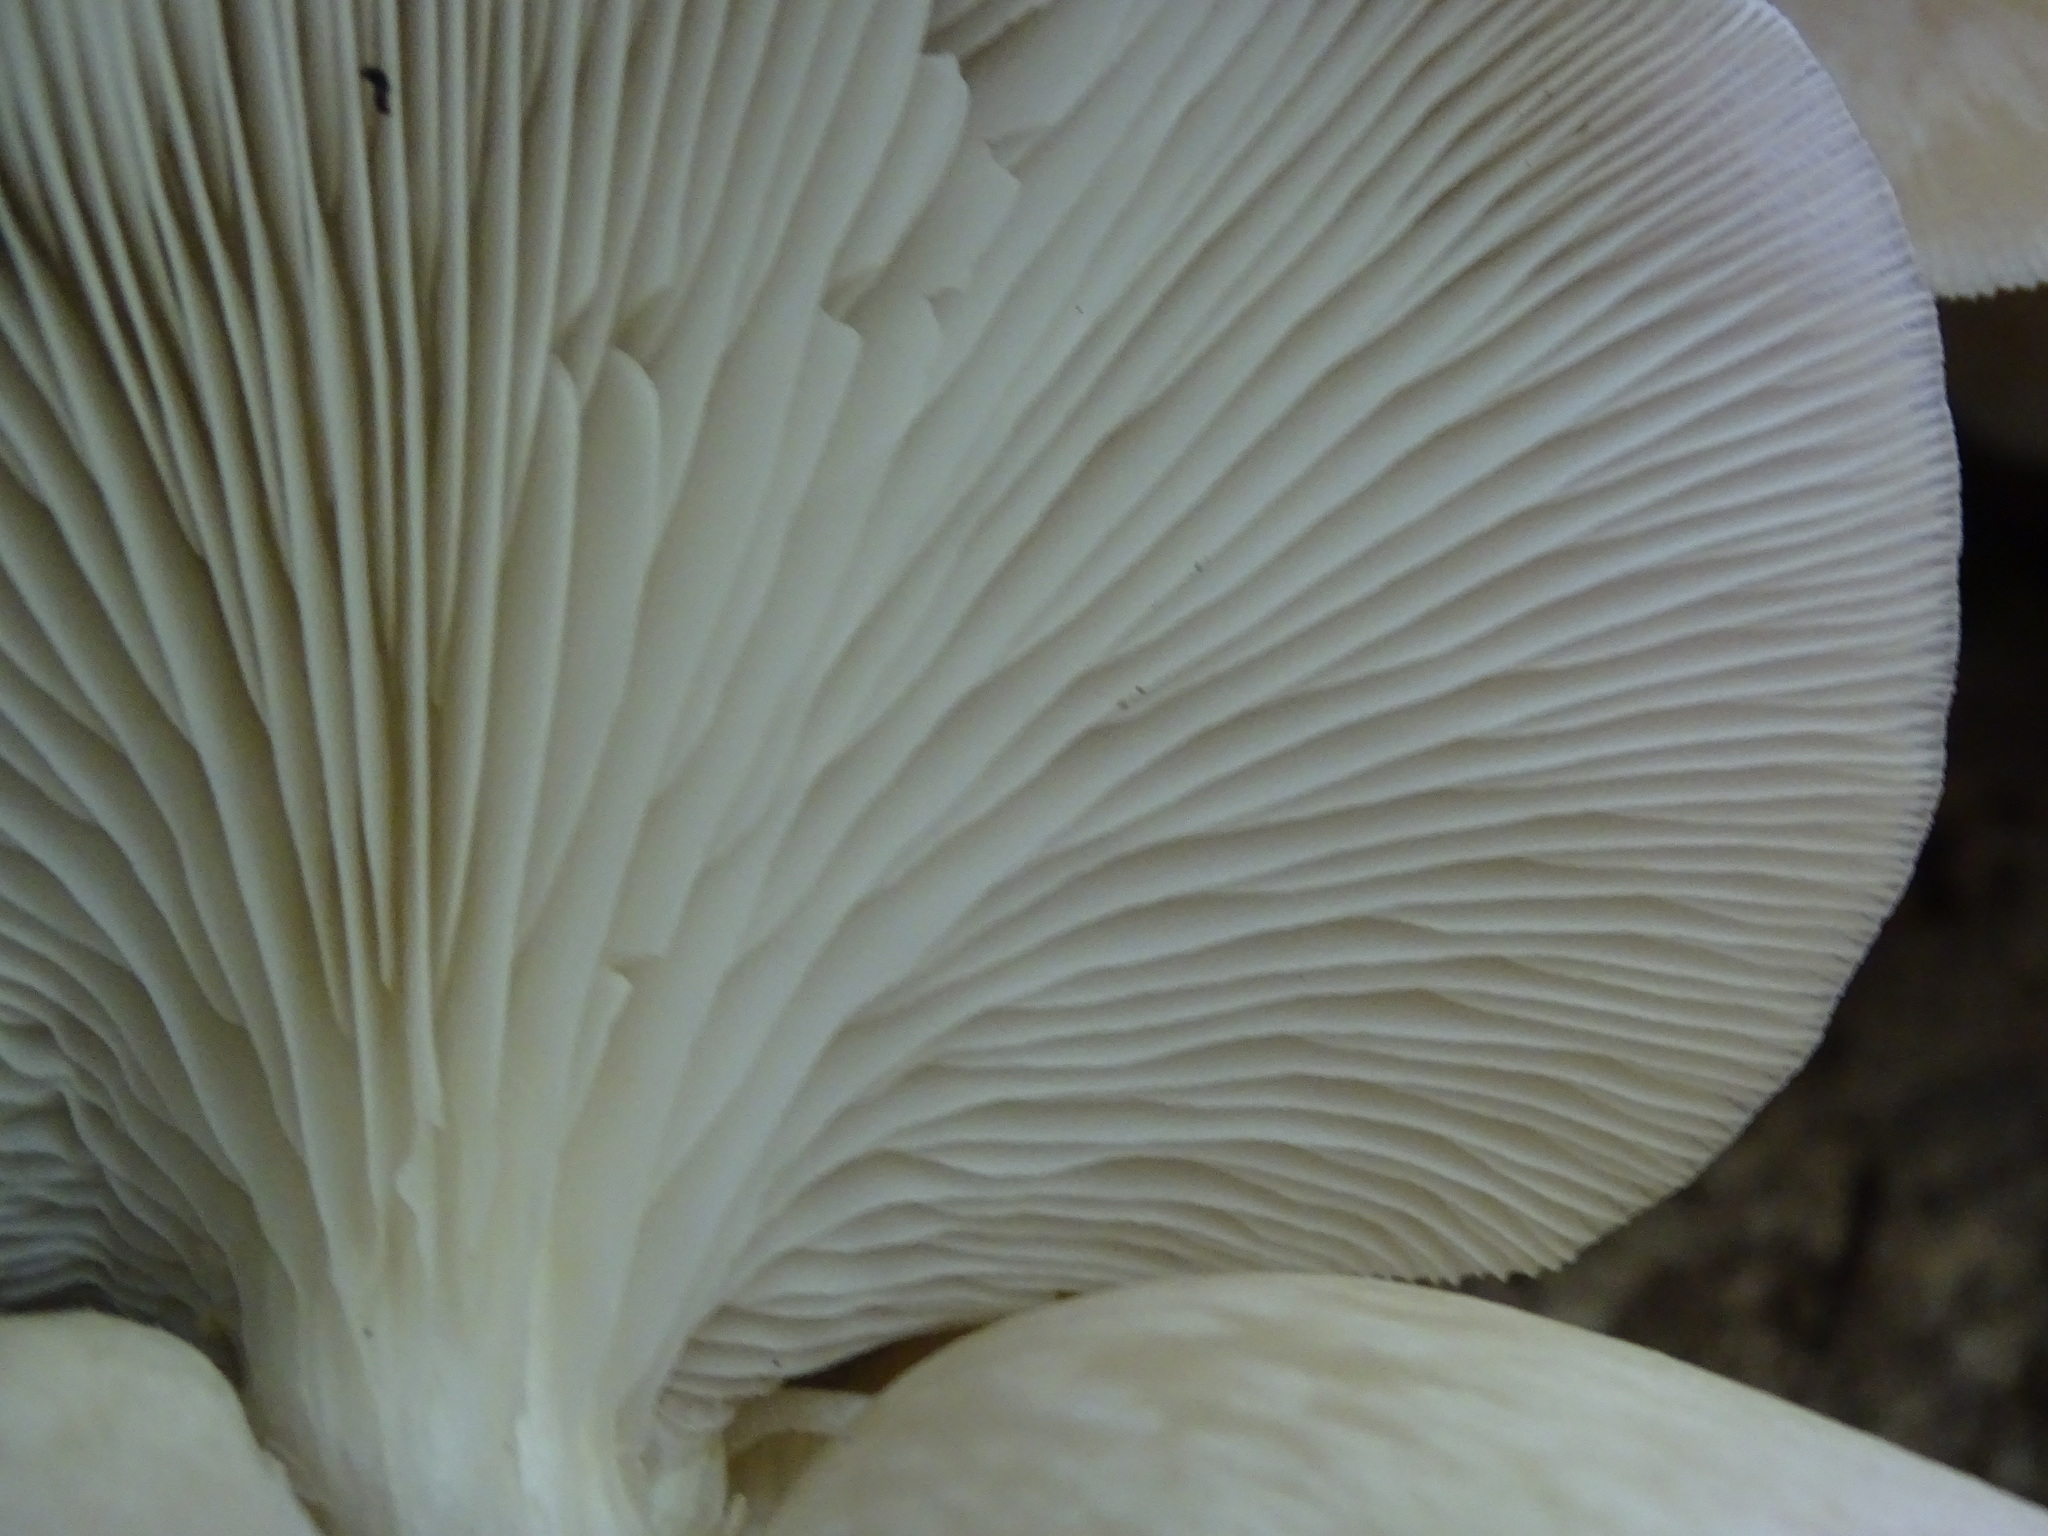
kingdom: Fungi
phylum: Basidiomycota
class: Agaricomycetes
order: Agaricales
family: Pleurotaceae
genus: Pleurotus
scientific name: Pleurotus ostreatus
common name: Oyster mushroom
